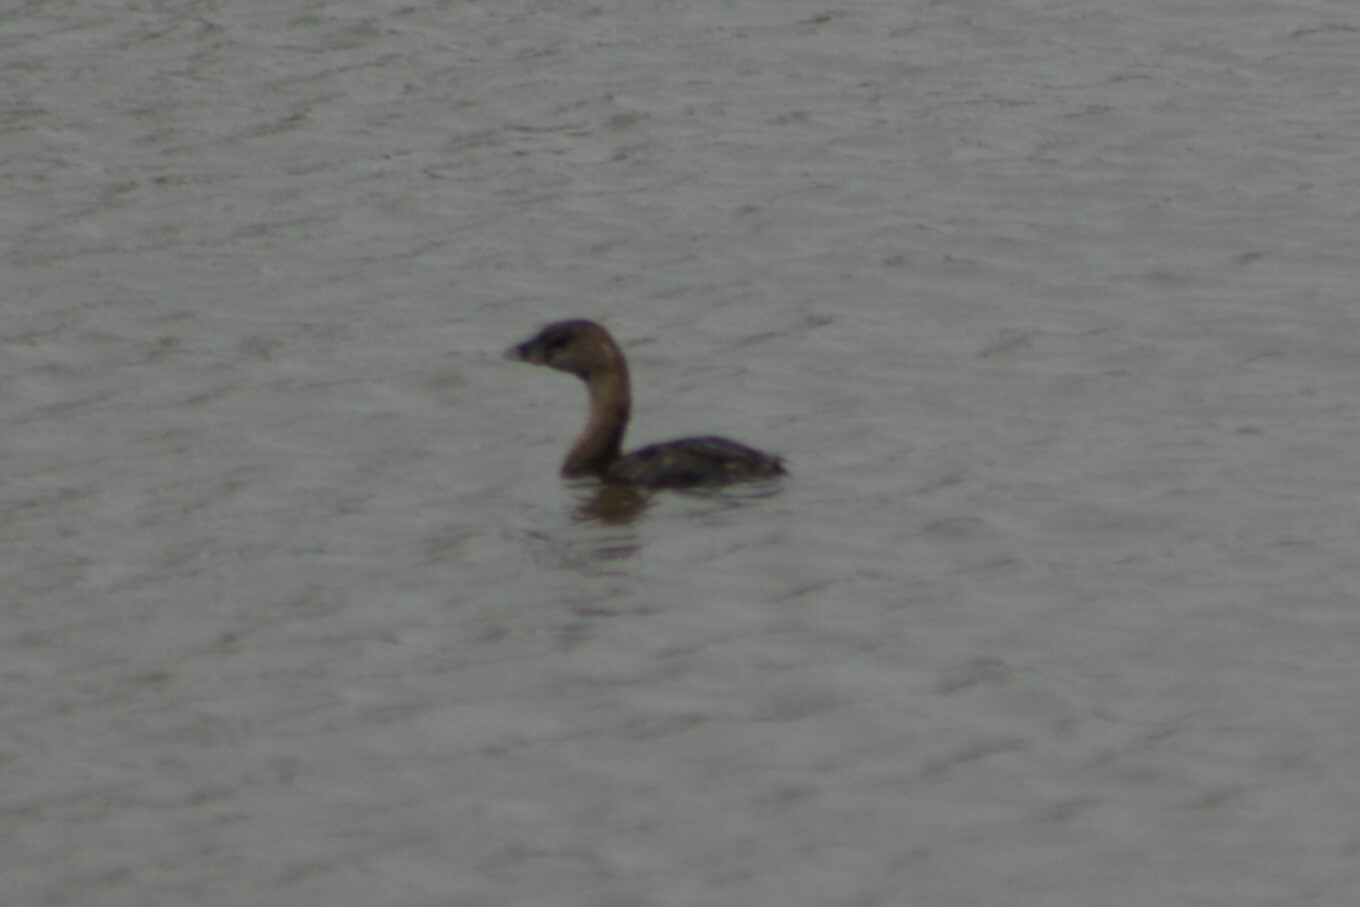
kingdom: Animalia
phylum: Chordata
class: Aves
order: Podicipediformes
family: Podicipedidae
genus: Podilymbus
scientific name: Podilymbus podiceps
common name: Pied-billed grebe
